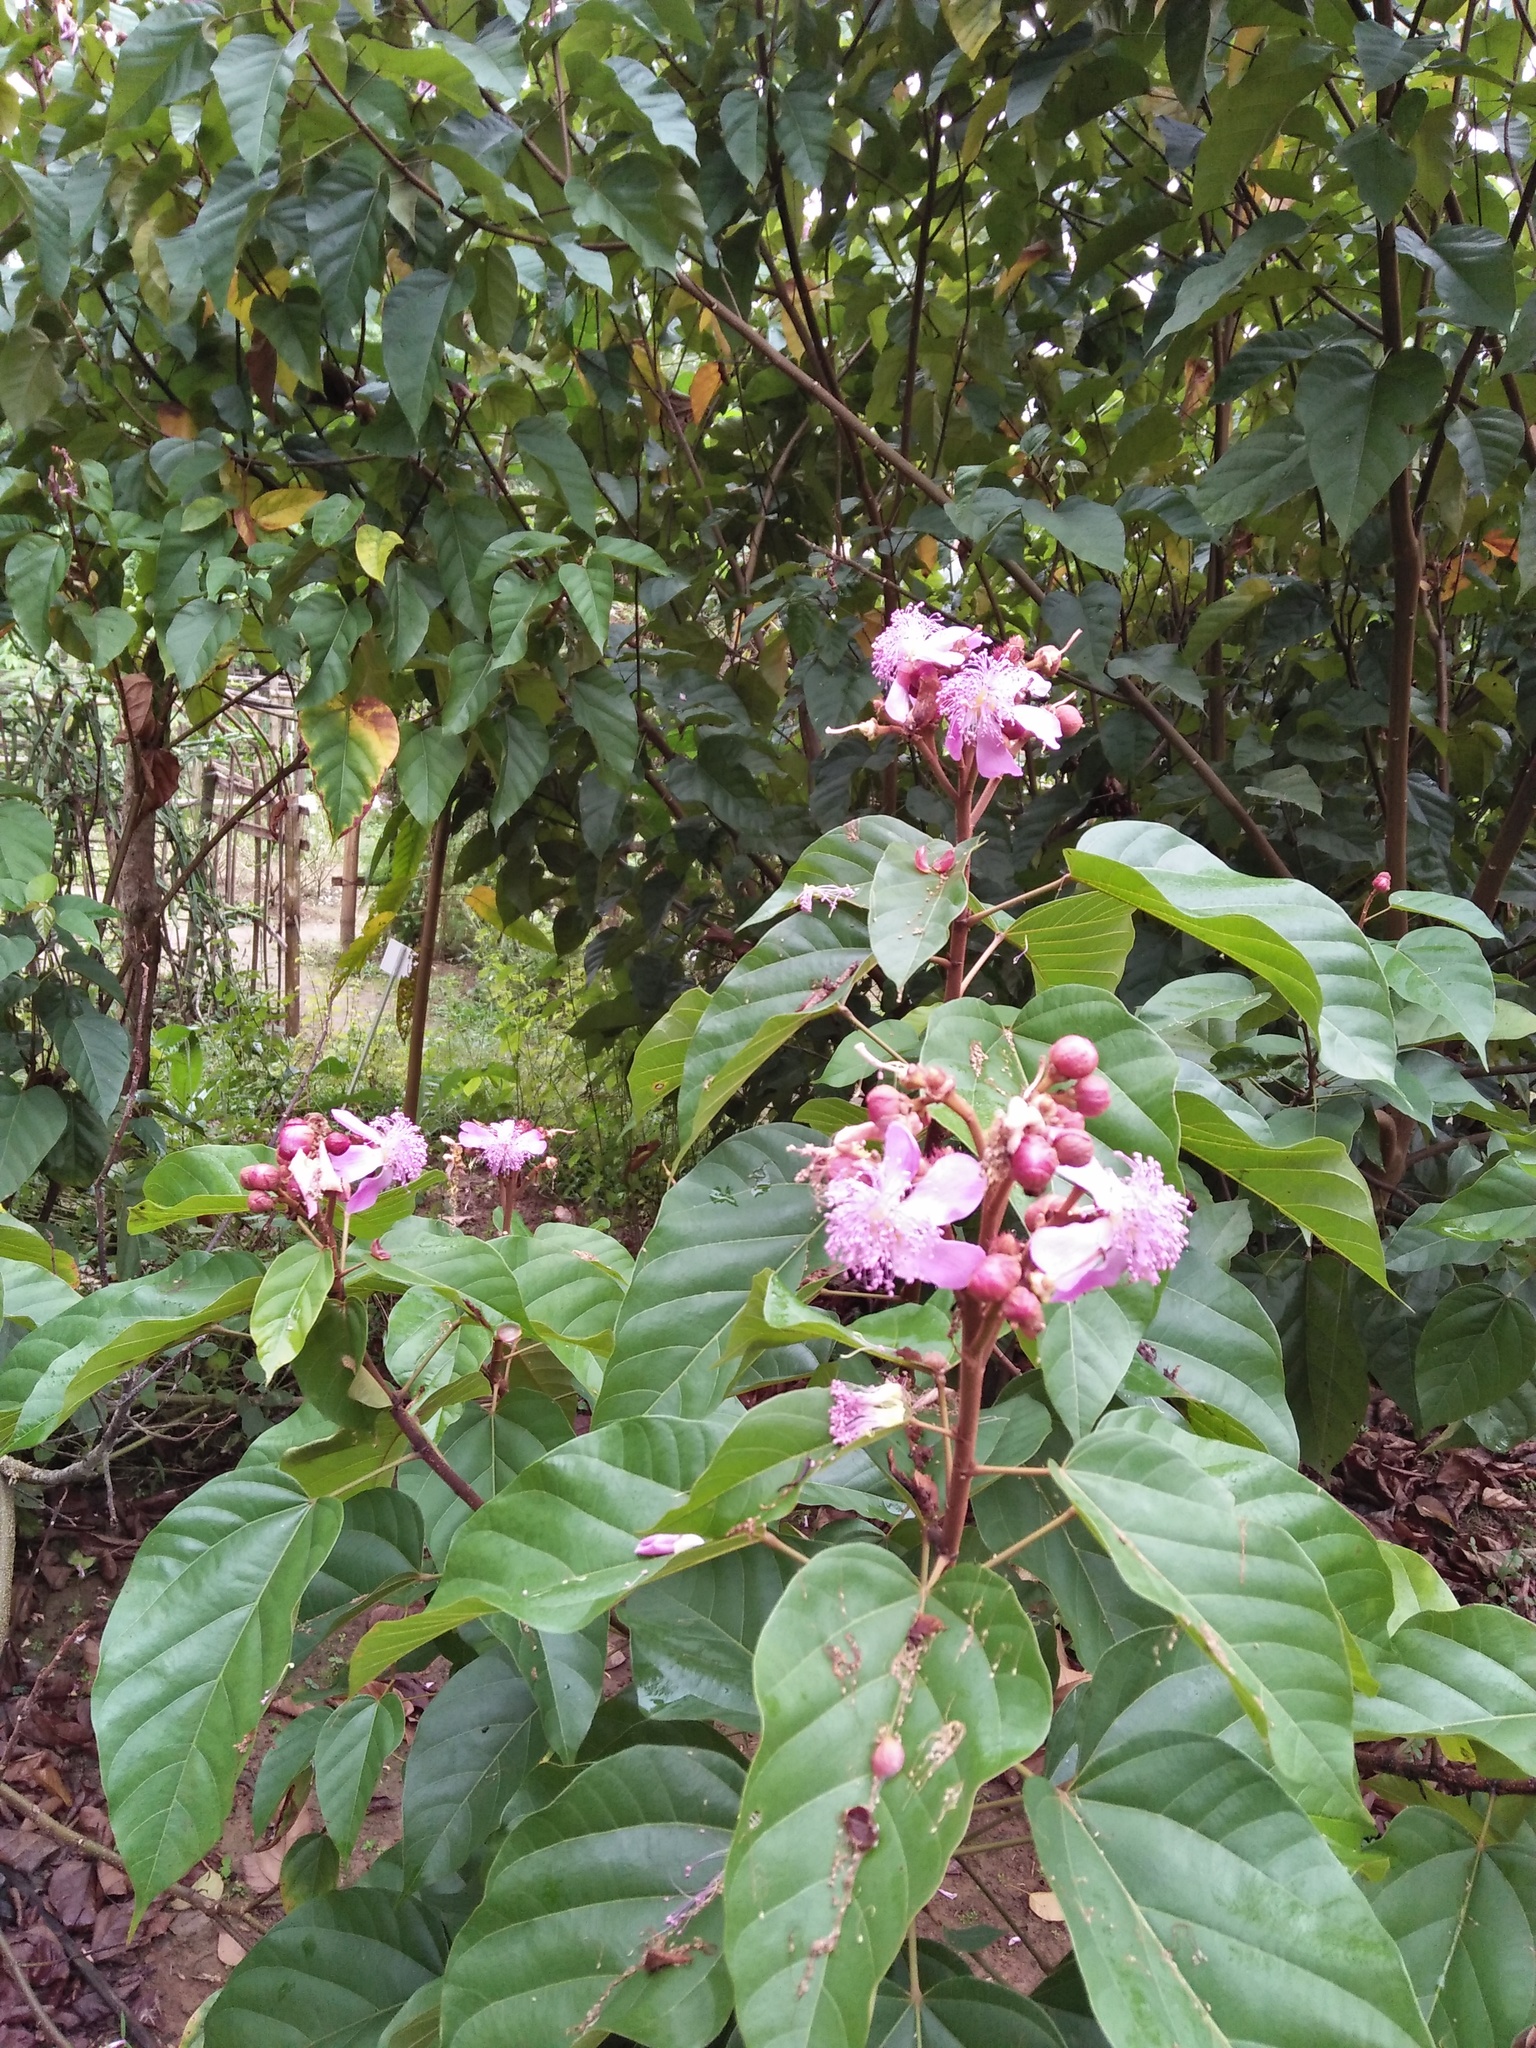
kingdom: Plantae
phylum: Tracheophyta
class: Magnoliopsida
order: Malvales
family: Bixaceae
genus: Bixa
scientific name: Bixa orellana
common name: Lipsticktree
